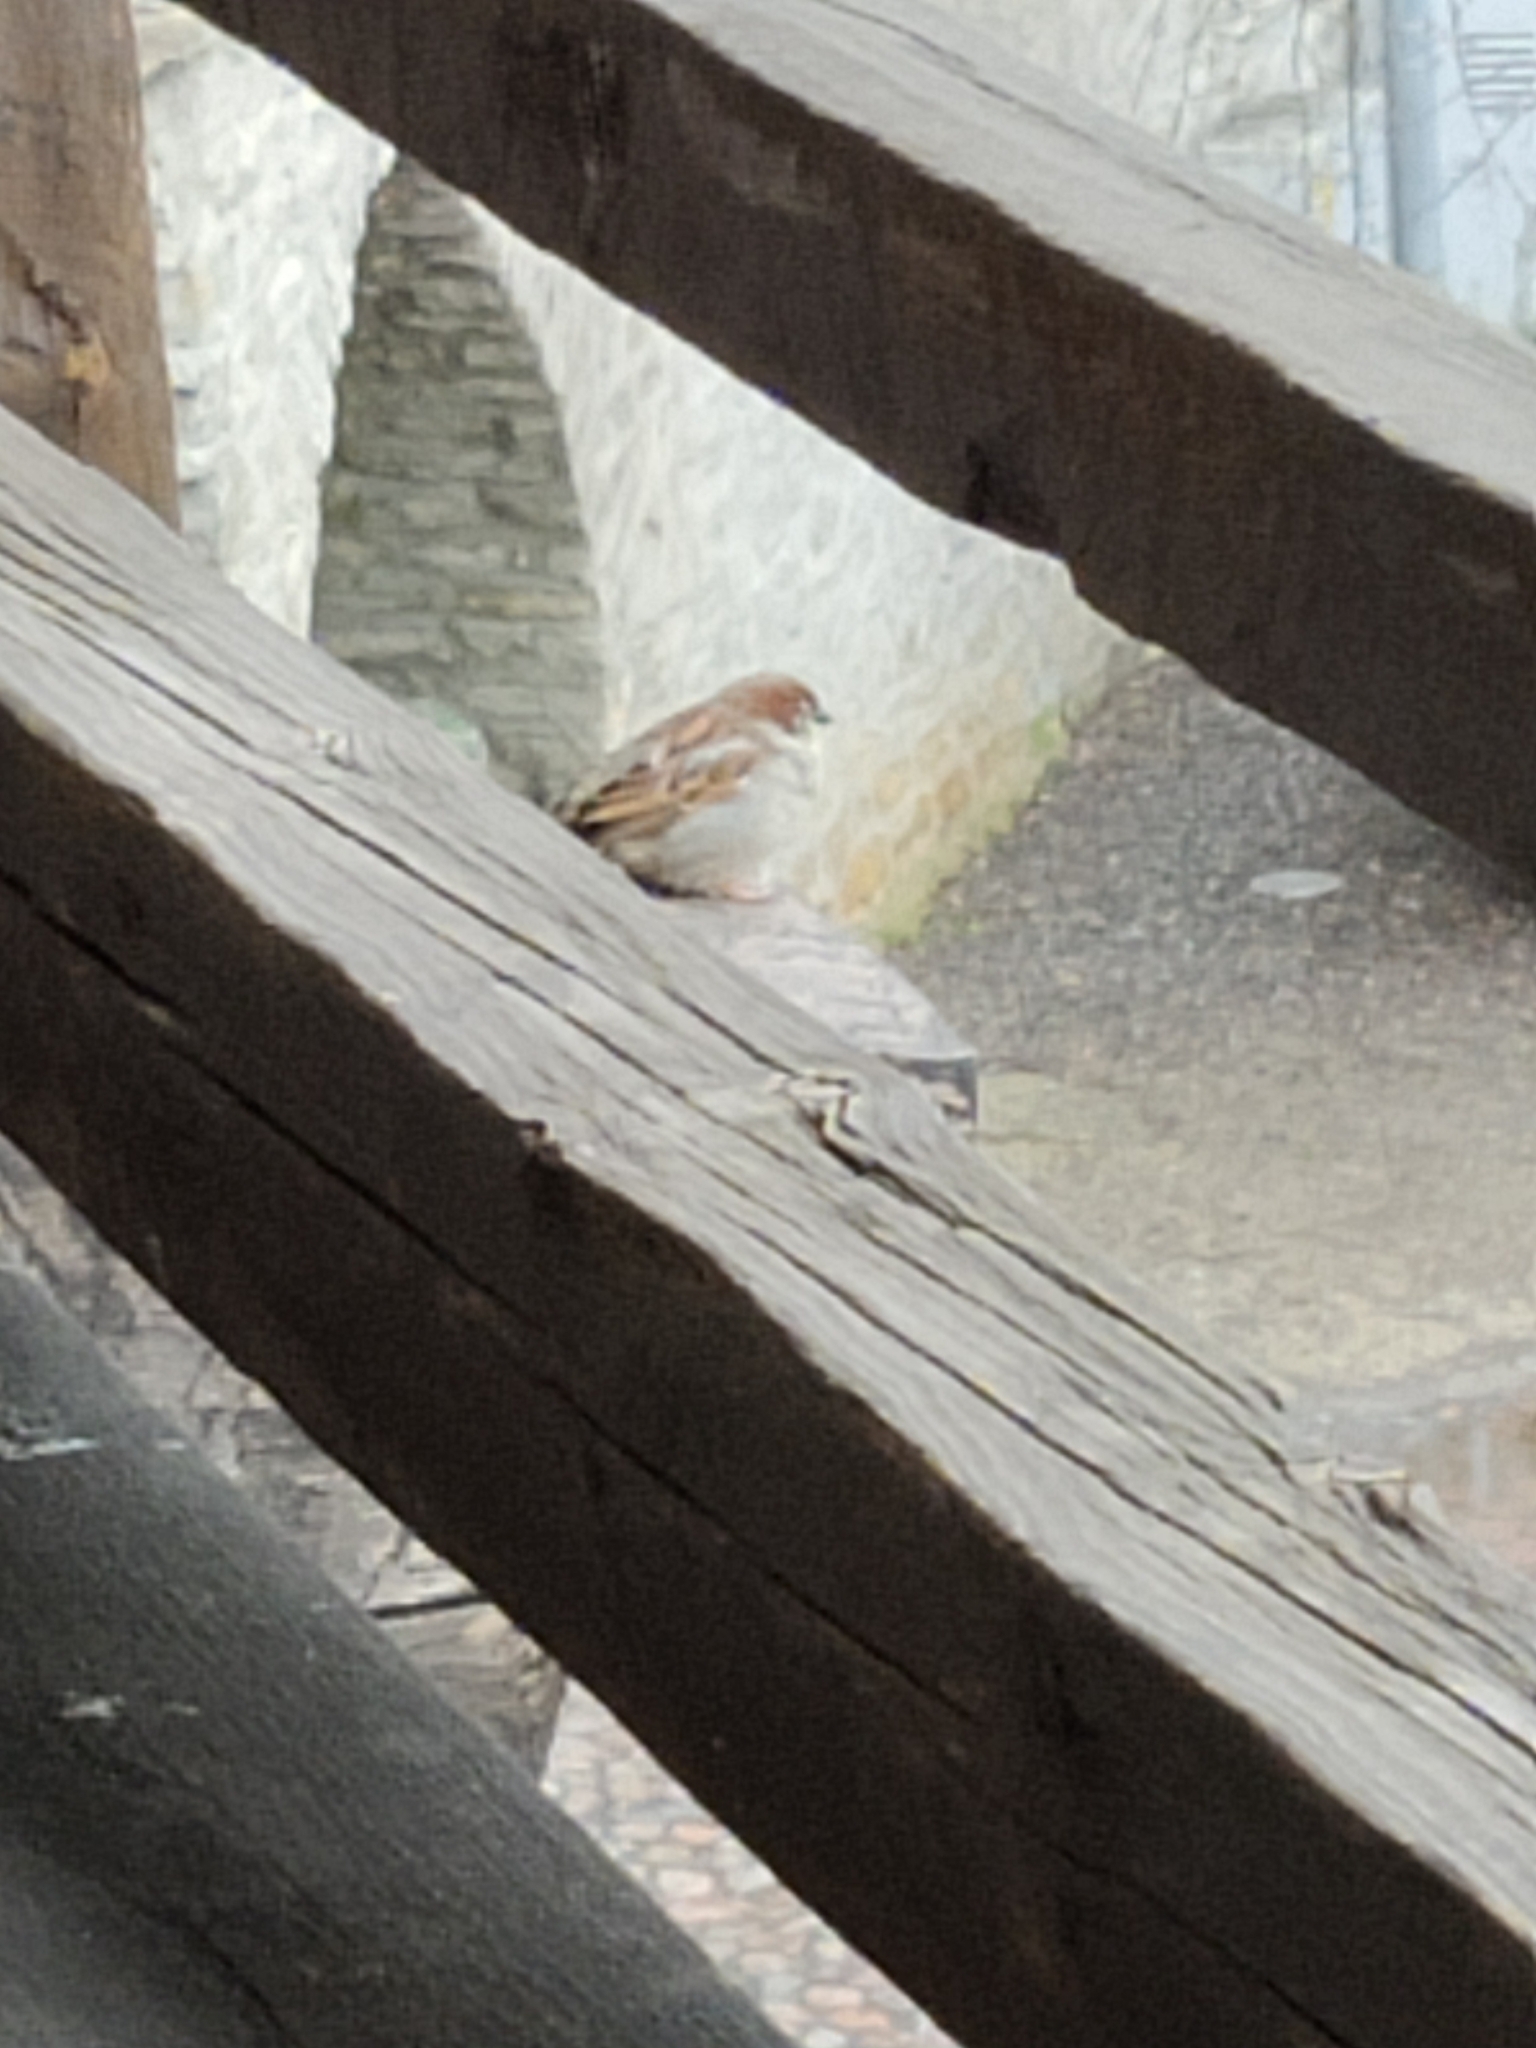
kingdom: Animalia
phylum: Chordata
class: Aves
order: Passeriformes
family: Passeridae
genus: Passer
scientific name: Passer domesticus
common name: House sparrow
